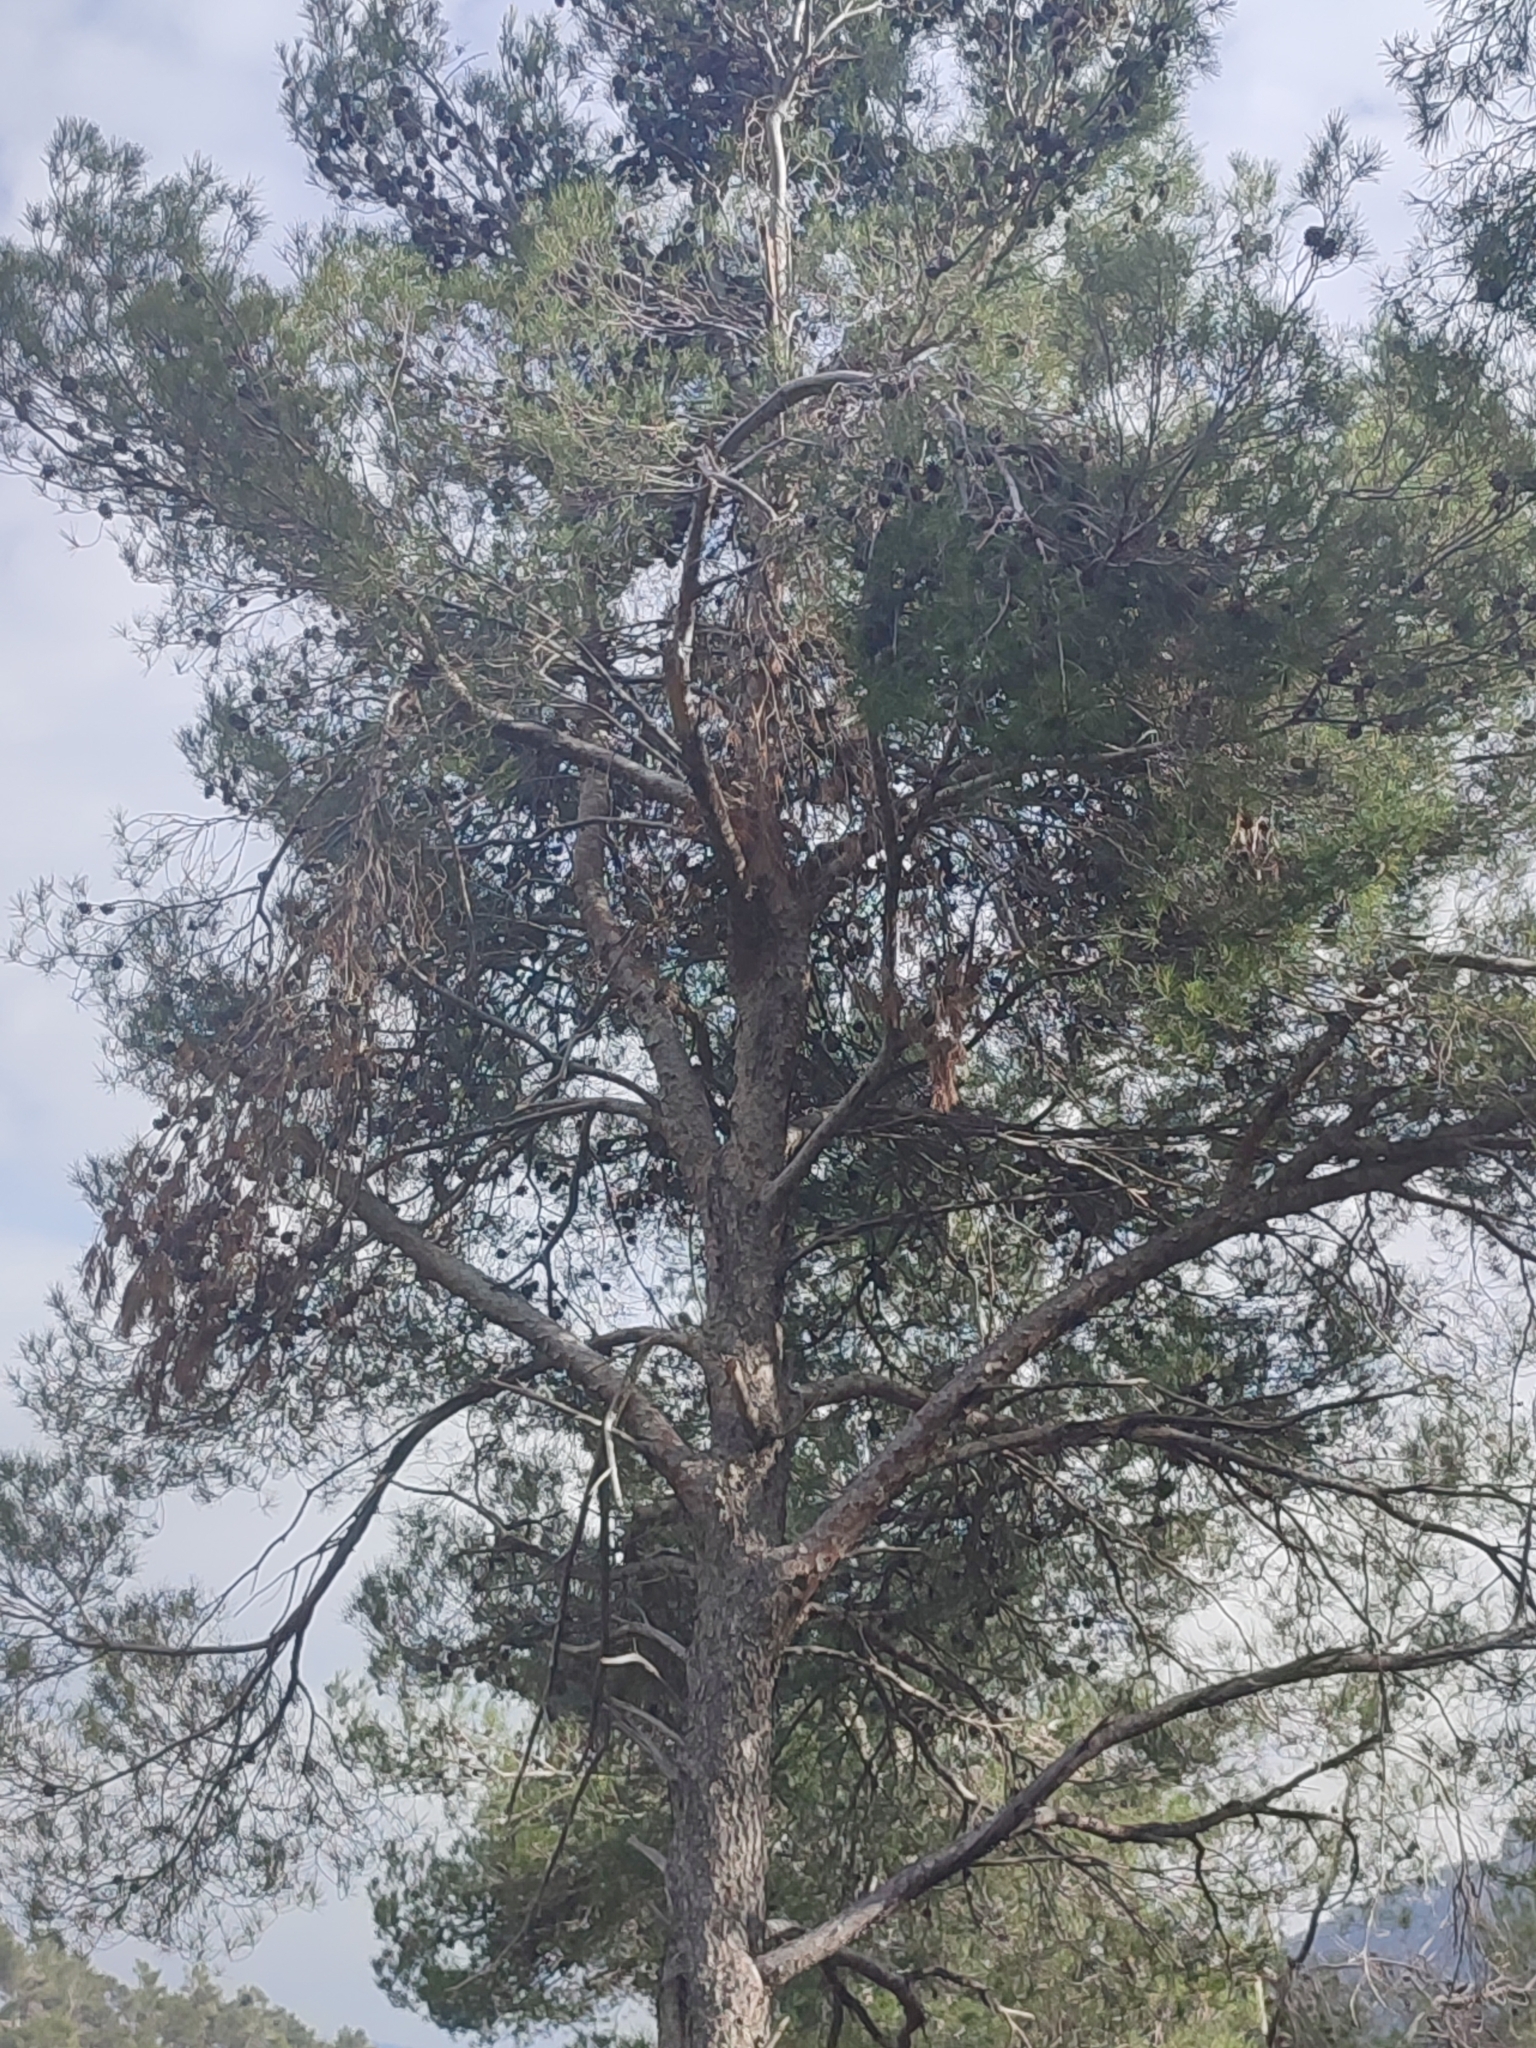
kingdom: Plantae
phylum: Tracheophyta
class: Pinopsida
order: Pinales
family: Pinaceae
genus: Pinus
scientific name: Pinus halepensis
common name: Aleppo pine
